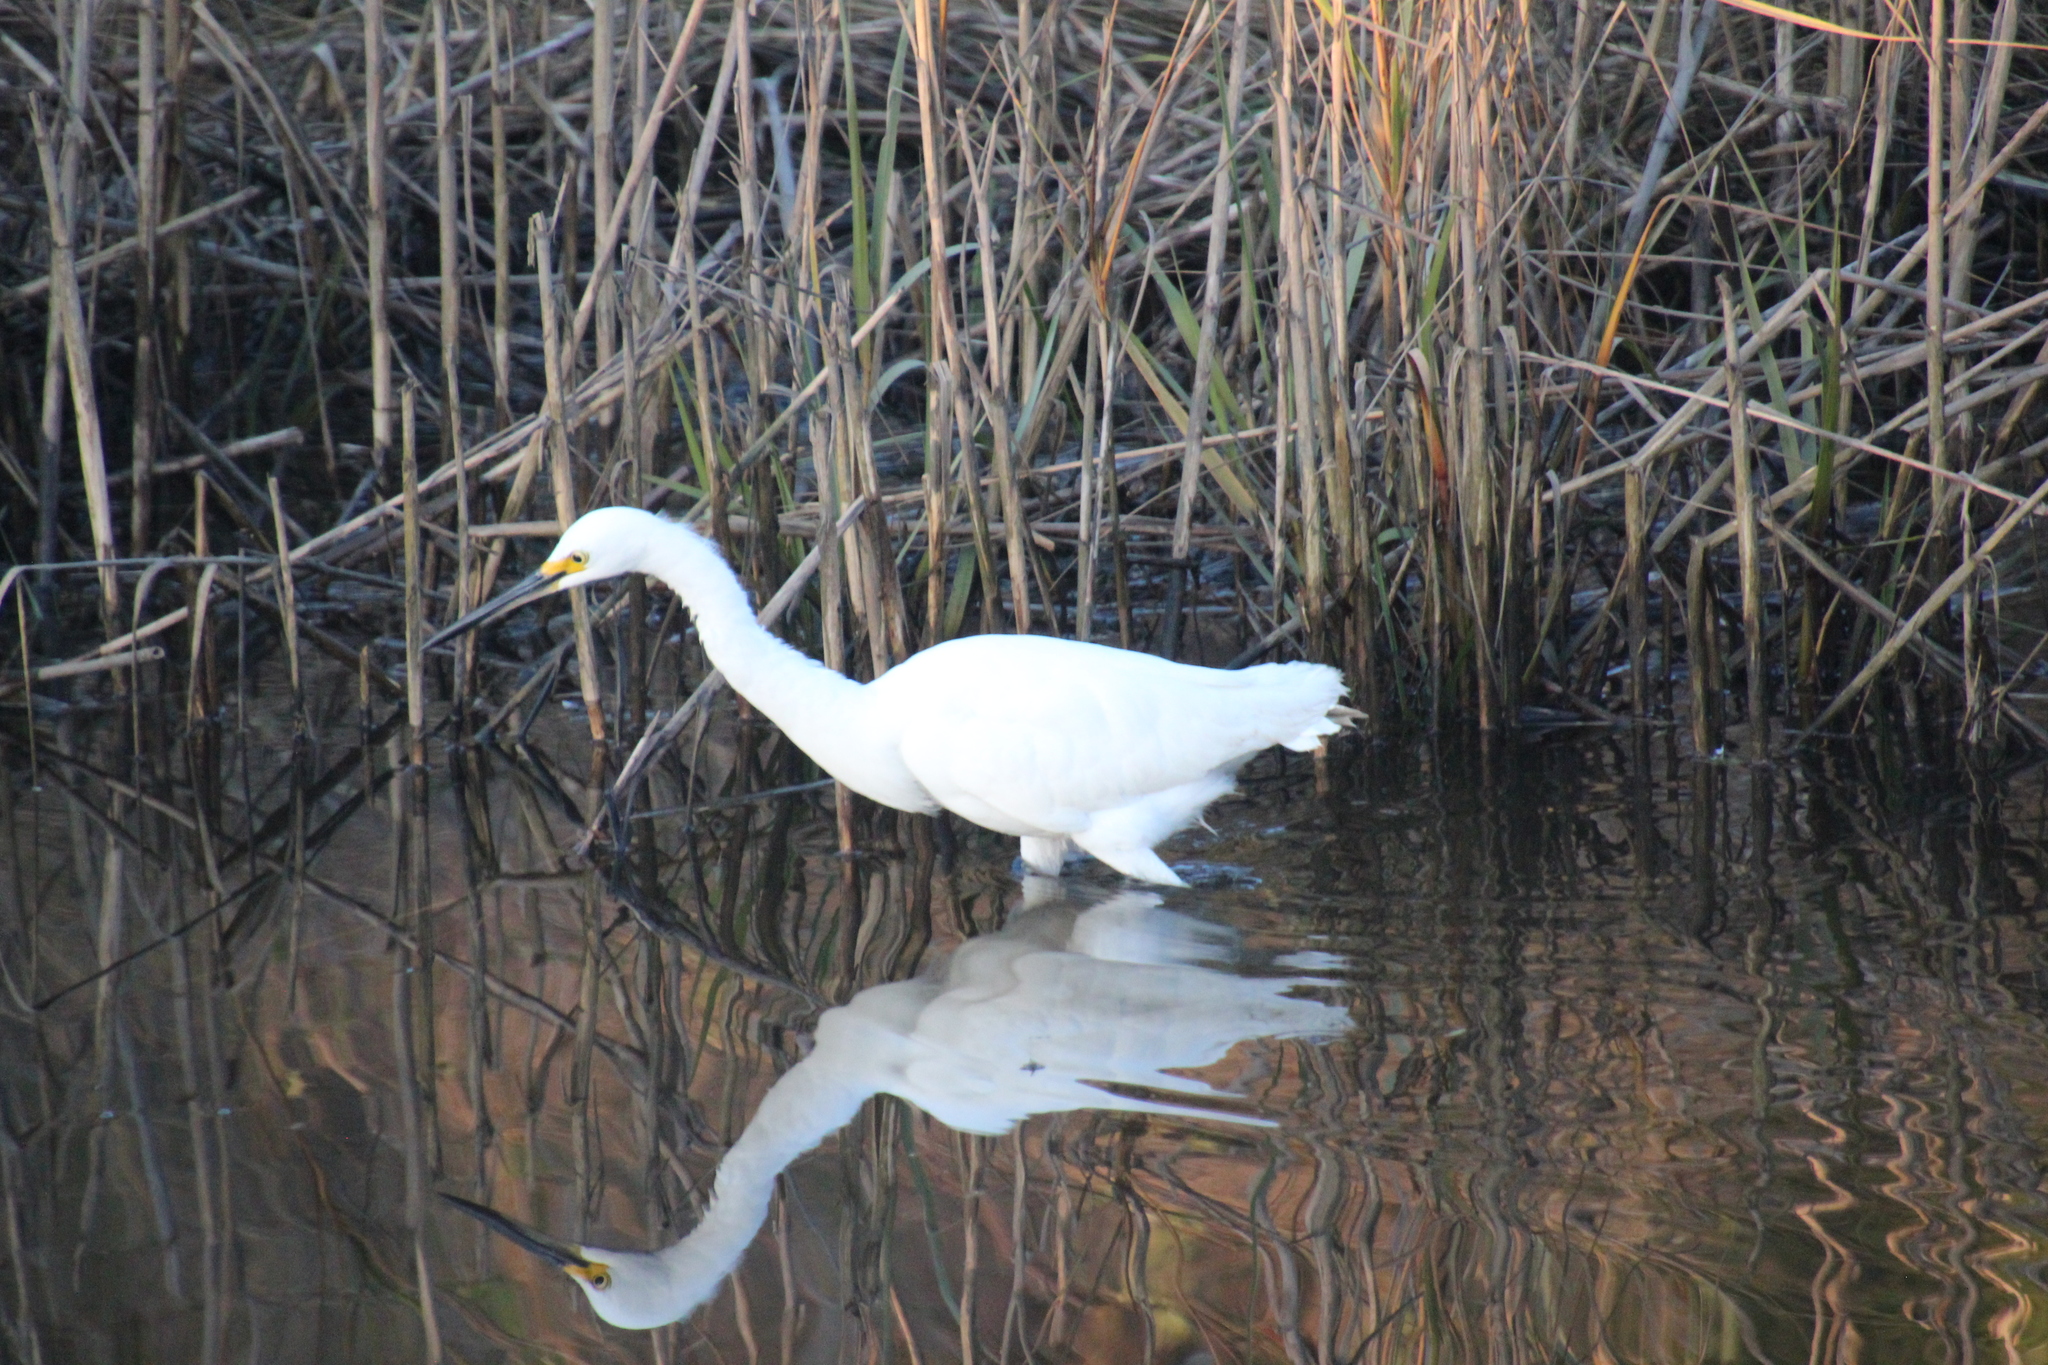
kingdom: Animalia
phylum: Chordata
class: Aves
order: Pelecaniformes
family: Ardeidae
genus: Egretta
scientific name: Egretta thula
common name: Snowy egret
